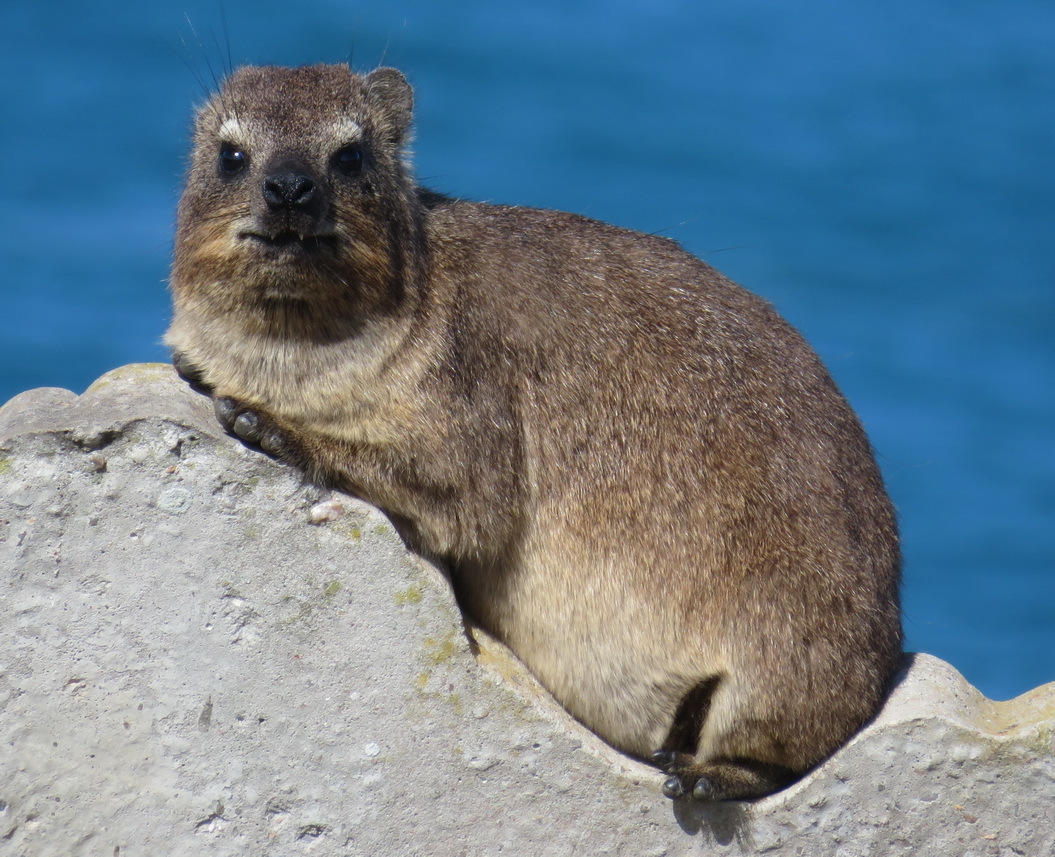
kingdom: Animalia
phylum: Chordata
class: Mammalia
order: Hyracoidea
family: Procaviidae
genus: Procavia
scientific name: Procavia capensis
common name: Rock hyrax
